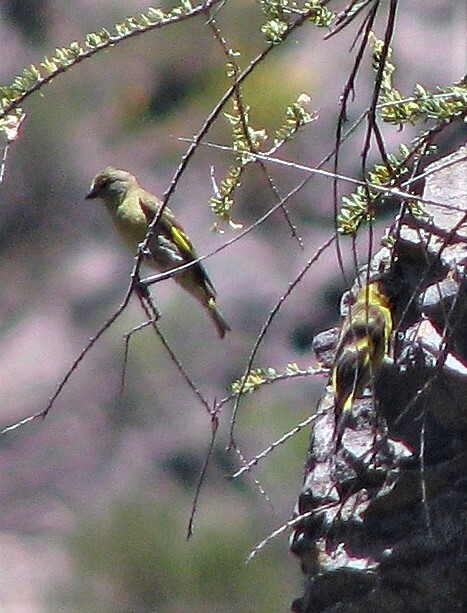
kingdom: Animalia
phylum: Chordata
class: Aves
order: Passeriformes
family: Fringillidae
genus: Spinus
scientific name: Spinus magellanicus
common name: Hooded siskin
